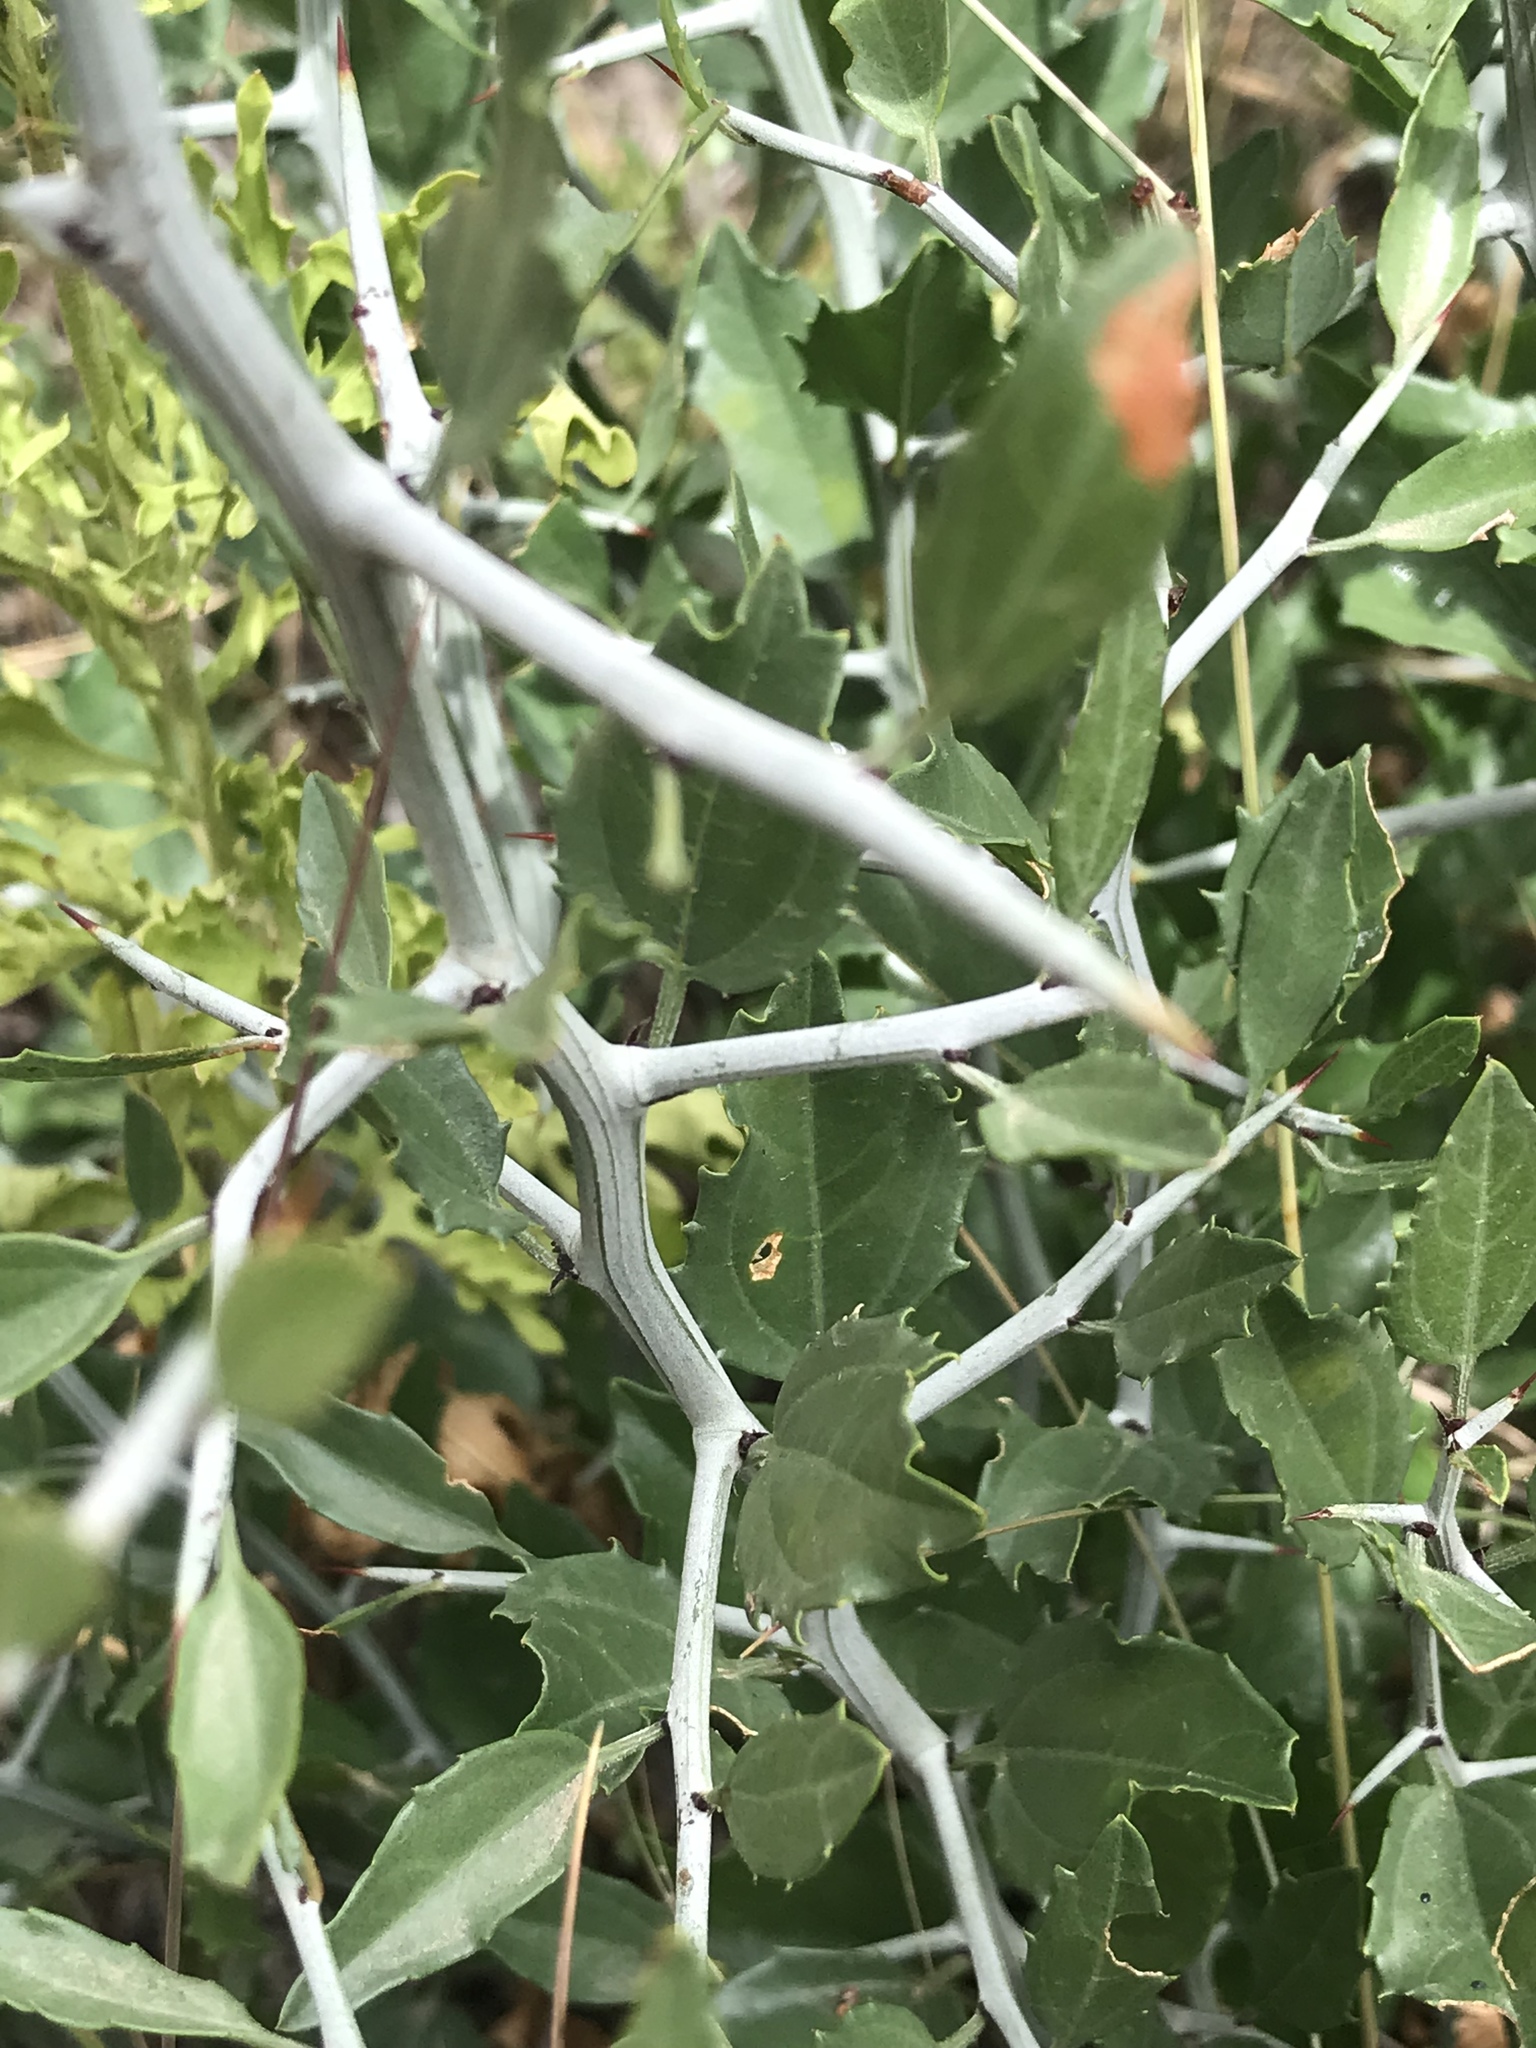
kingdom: Plantae
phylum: Tracheophyta
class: Magnoliopsida
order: Rosales
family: Rhamnaceae
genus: Sarcomphalus
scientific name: Sarcomphalus obtusifolius
